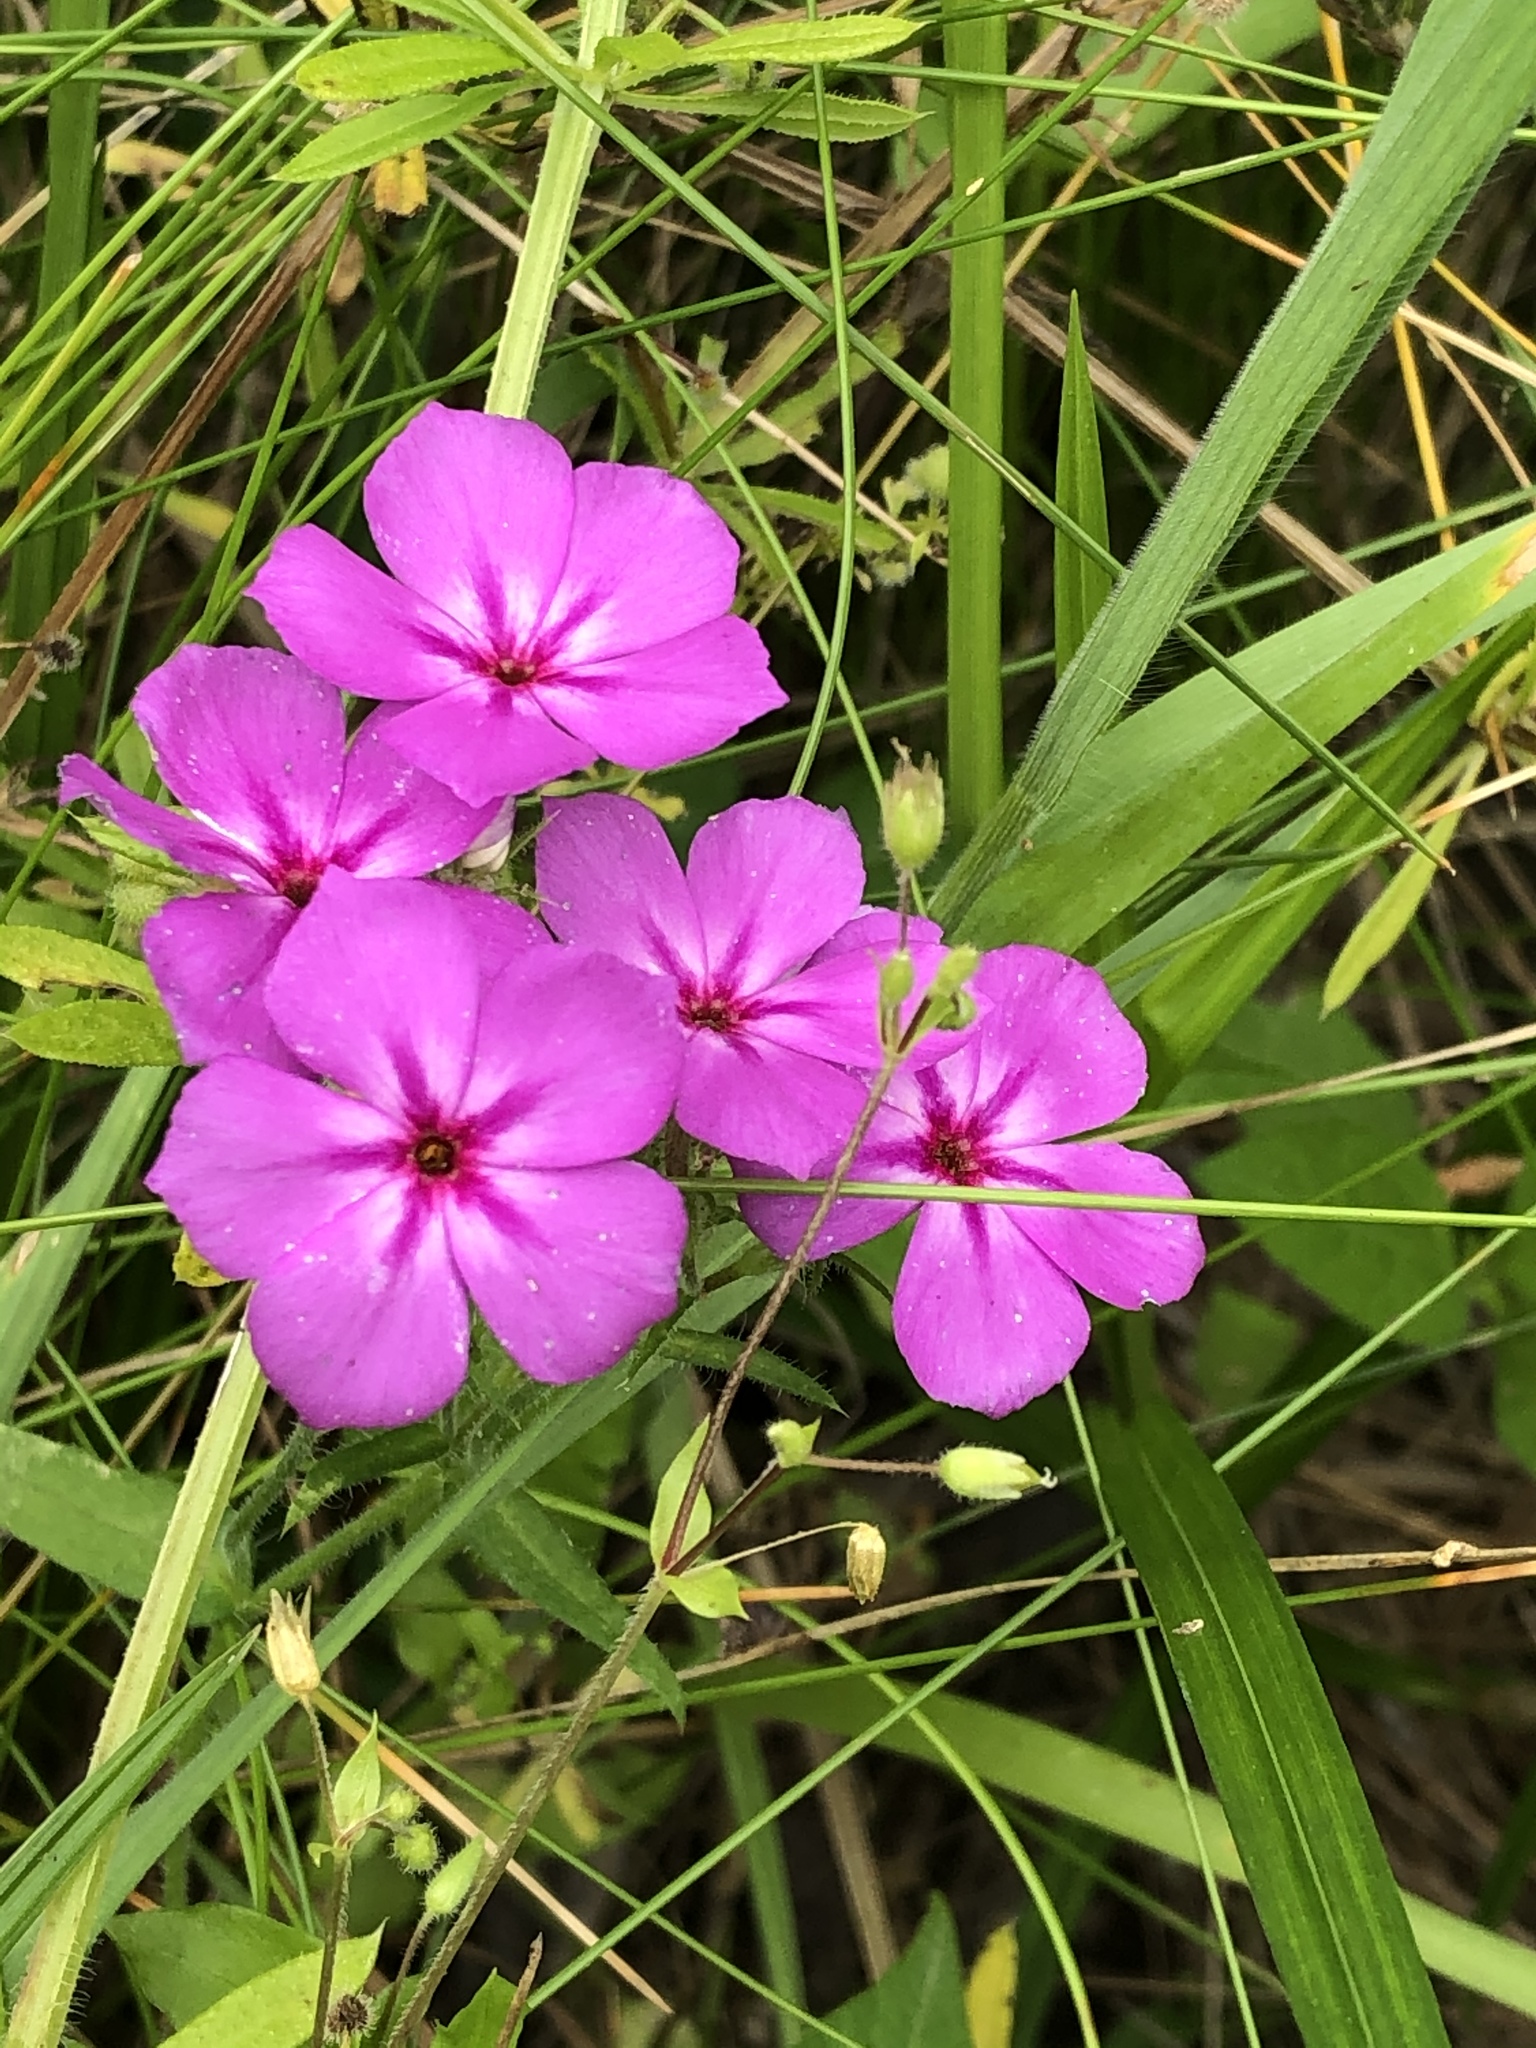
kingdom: Plantae
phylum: Tracheophyta
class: Magnoliopsida
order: Ericales
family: Polemoniaceae
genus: Phlox
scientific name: Phlox drummondii
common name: Drummond's phlox
